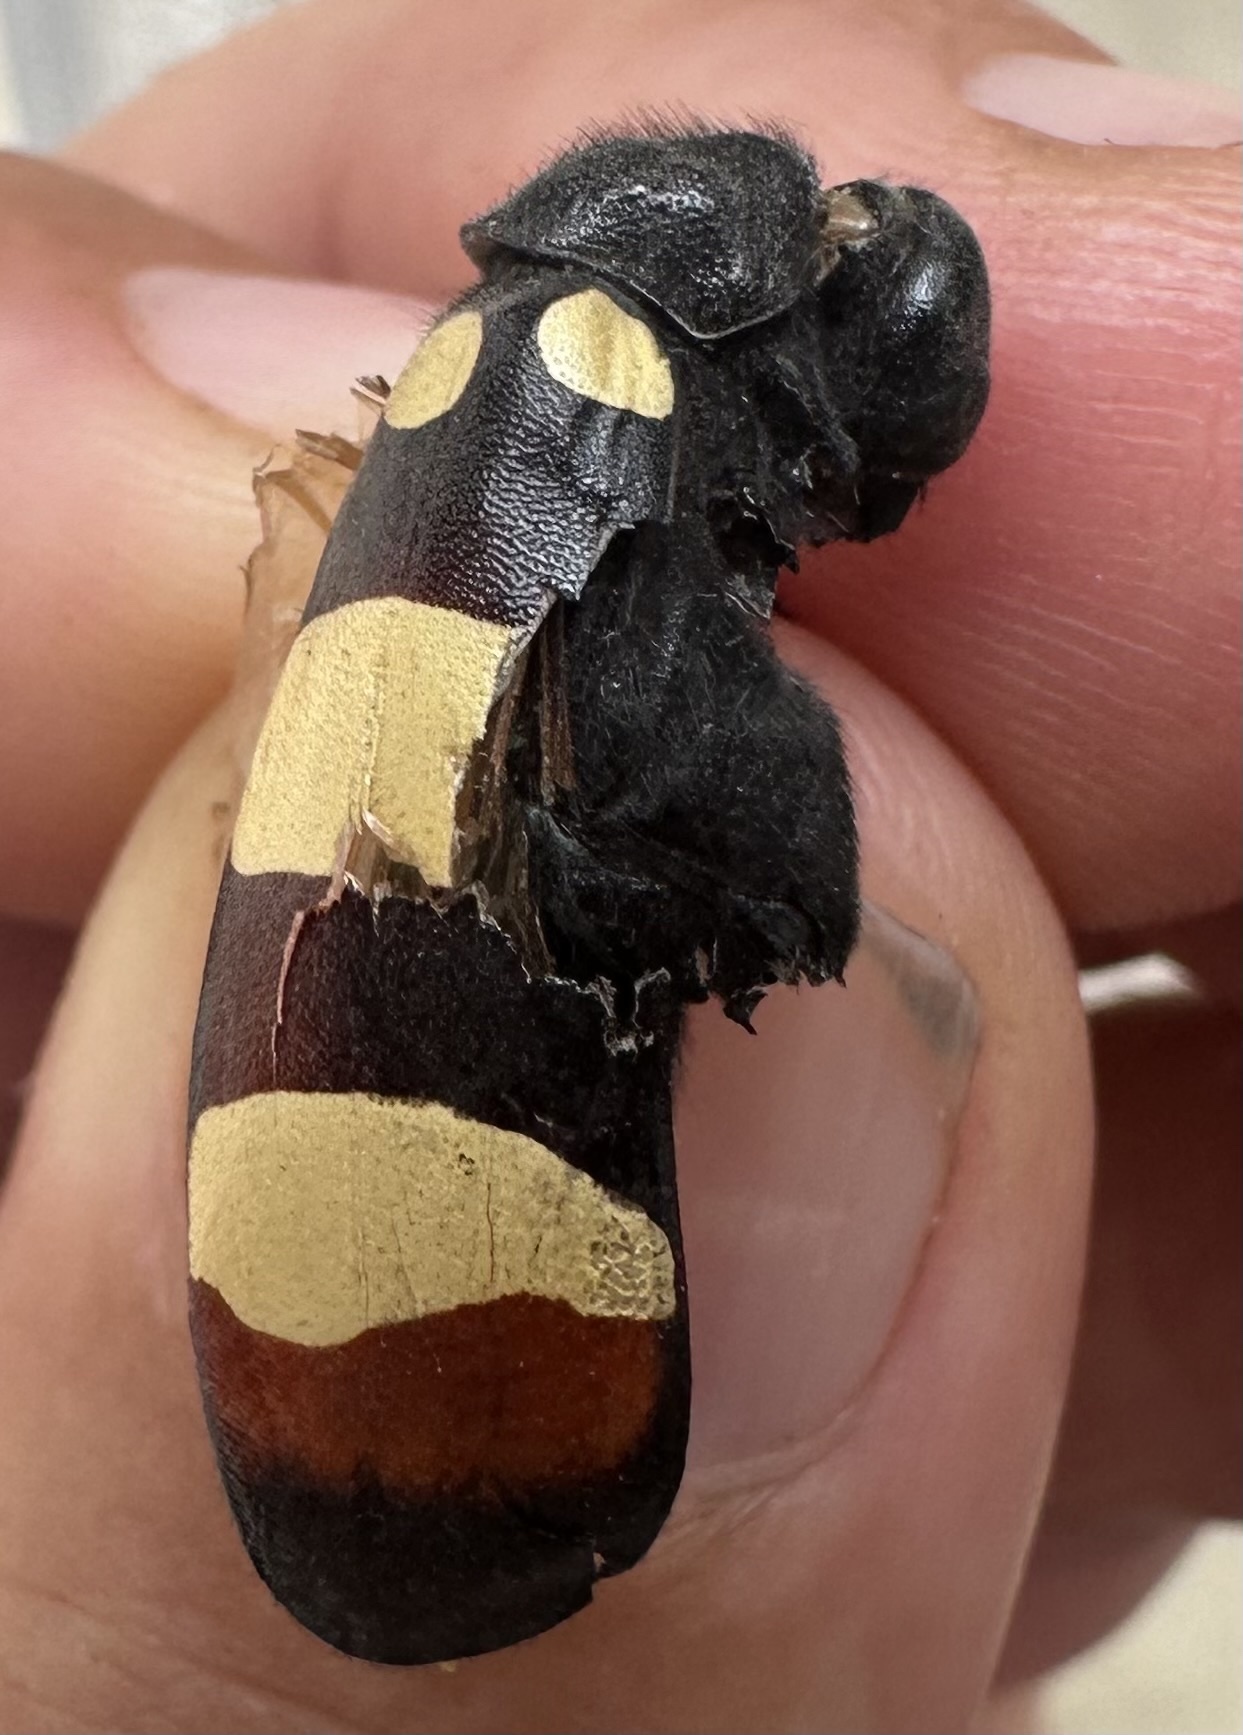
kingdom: Animalia
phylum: Arthropoda
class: Insecta
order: Coleoptera
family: Meloidae
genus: Hycleus
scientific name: Hycleus
